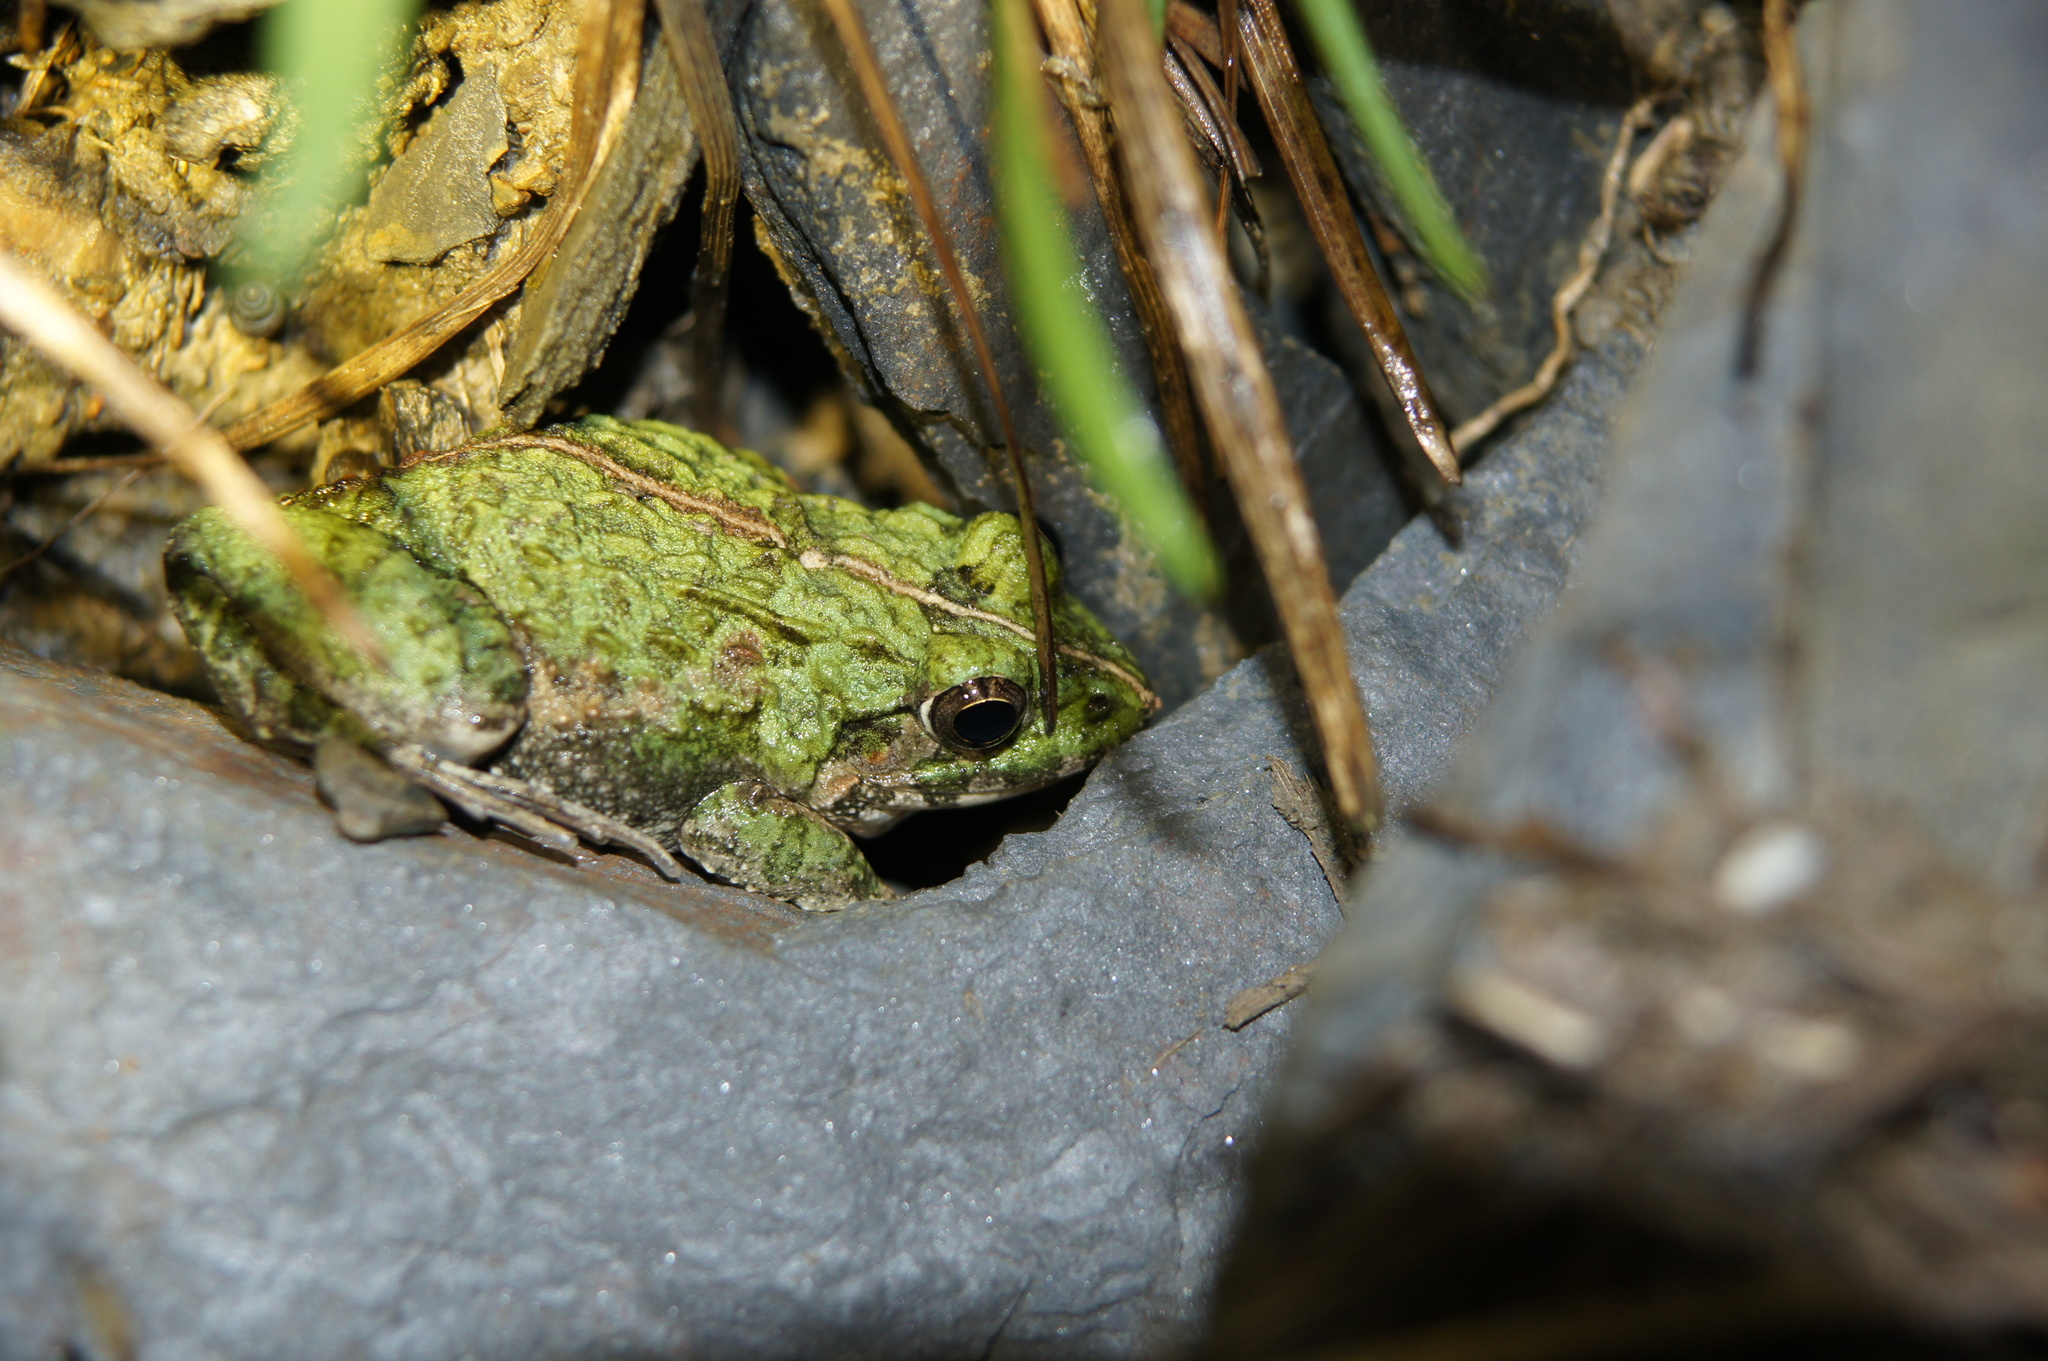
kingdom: Animalia
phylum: Chordata
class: Amphibia
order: Anura
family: Dicroglossidae
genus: Fejervarya
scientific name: Fejervarya limnocharis
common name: Asian grass frog/common pond frog/field frog/grass frog/indian rice frog
